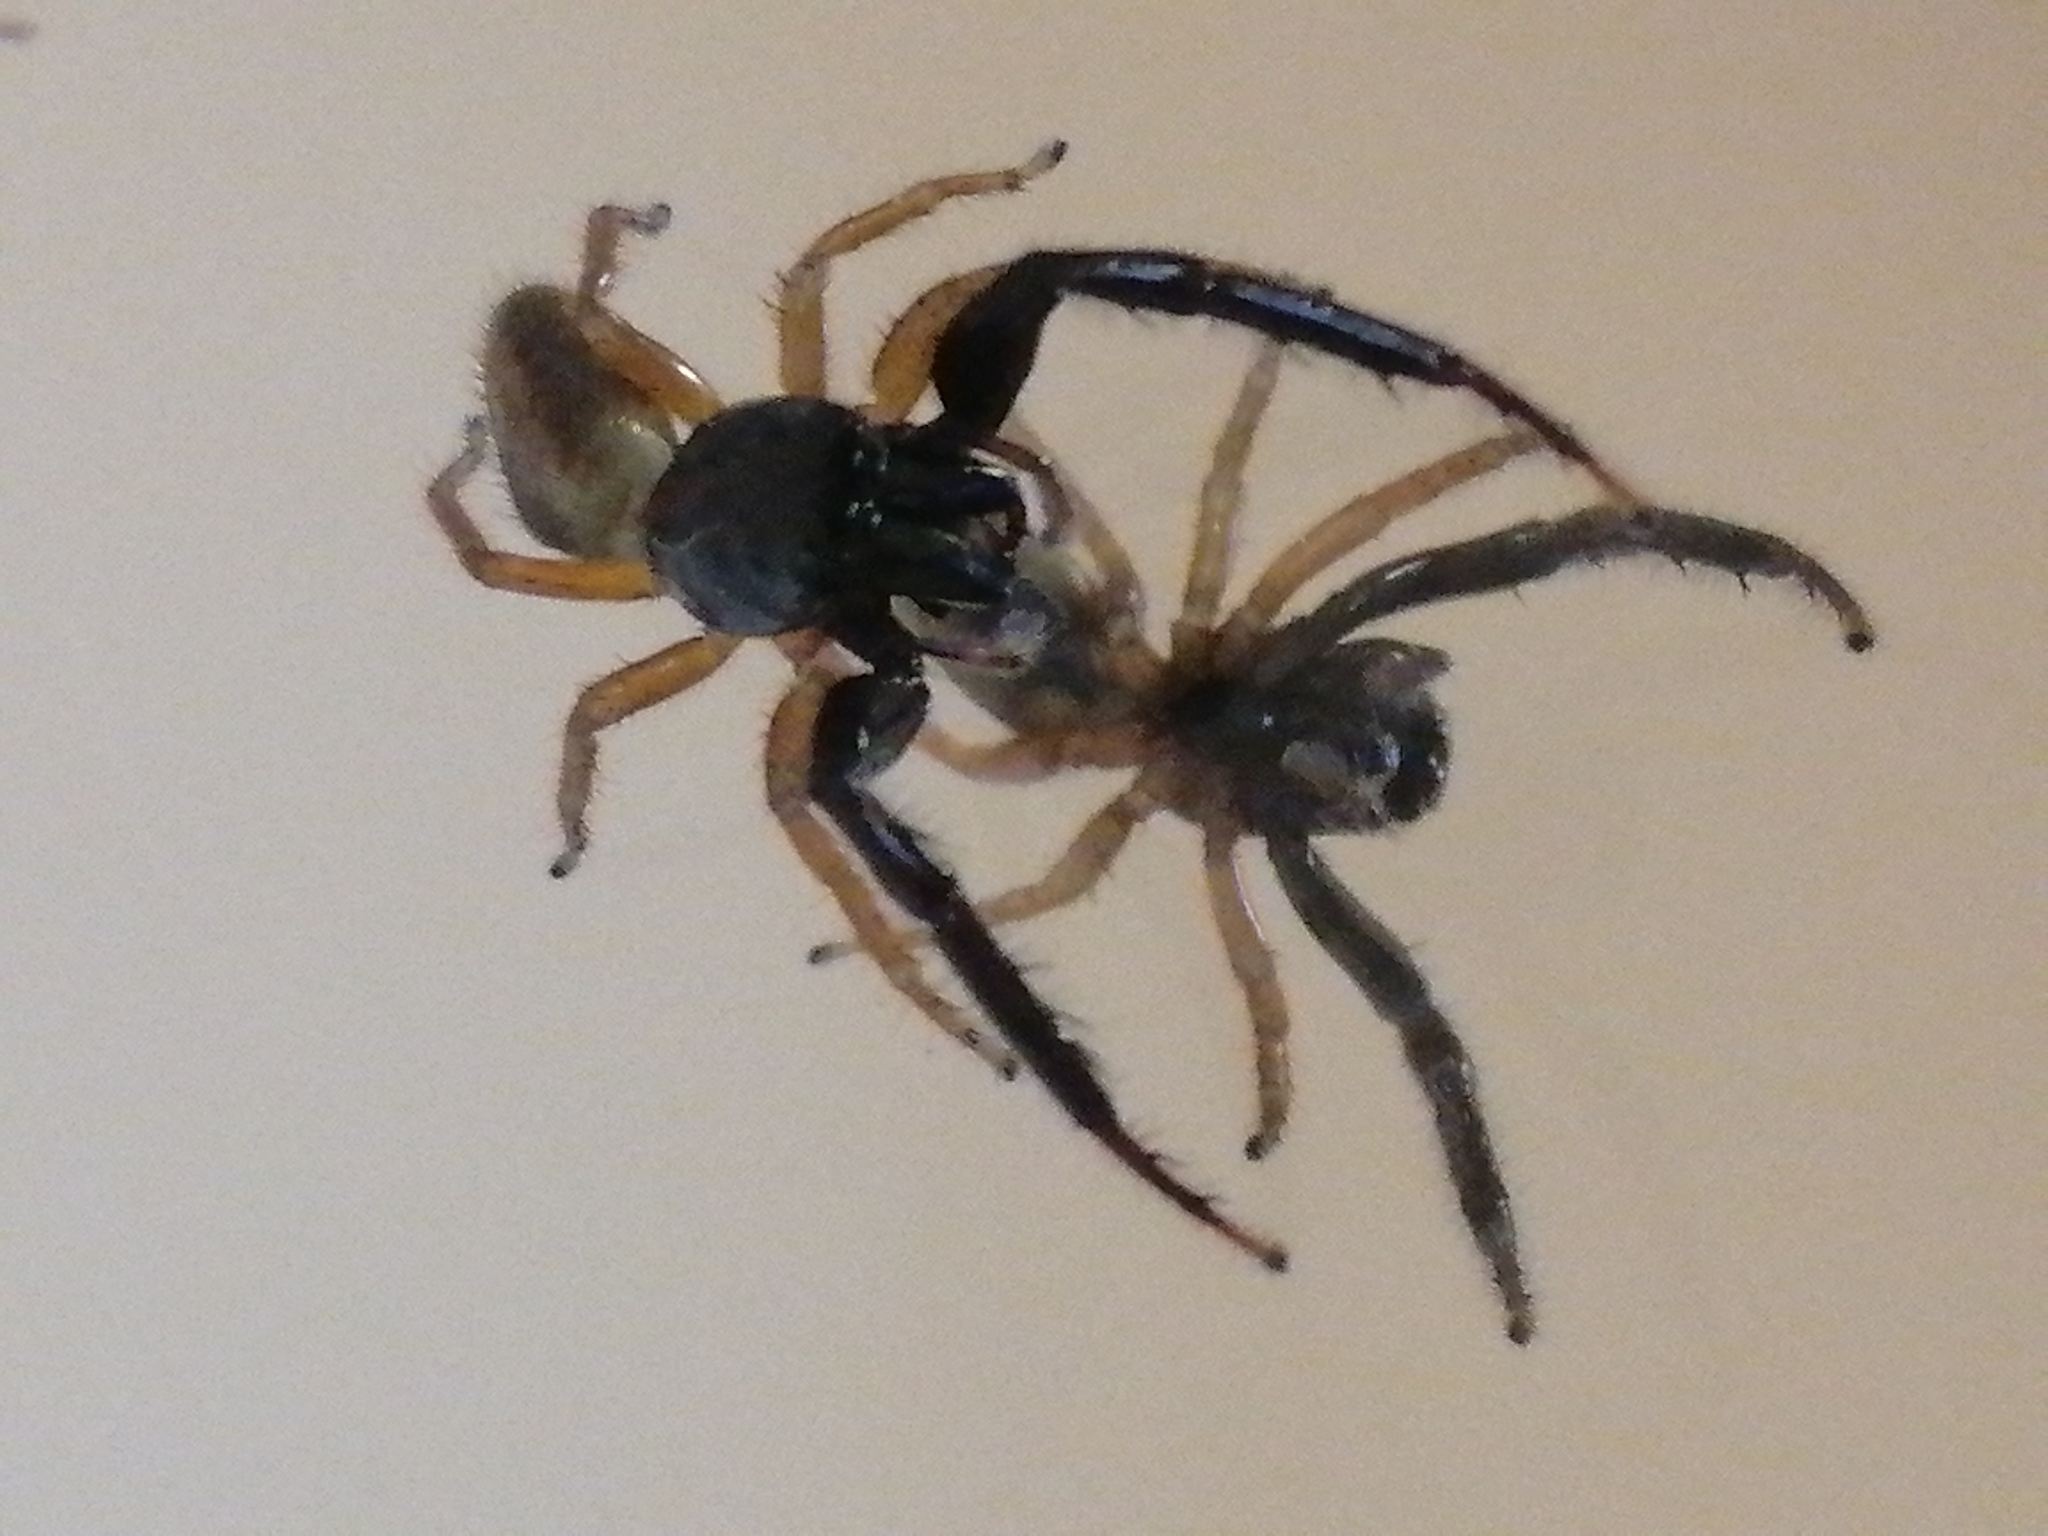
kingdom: Animalia
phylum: Arthropoda
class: Arachnida
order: Araneae
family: Salticidae
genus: Trite
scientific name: Trite planiceps
